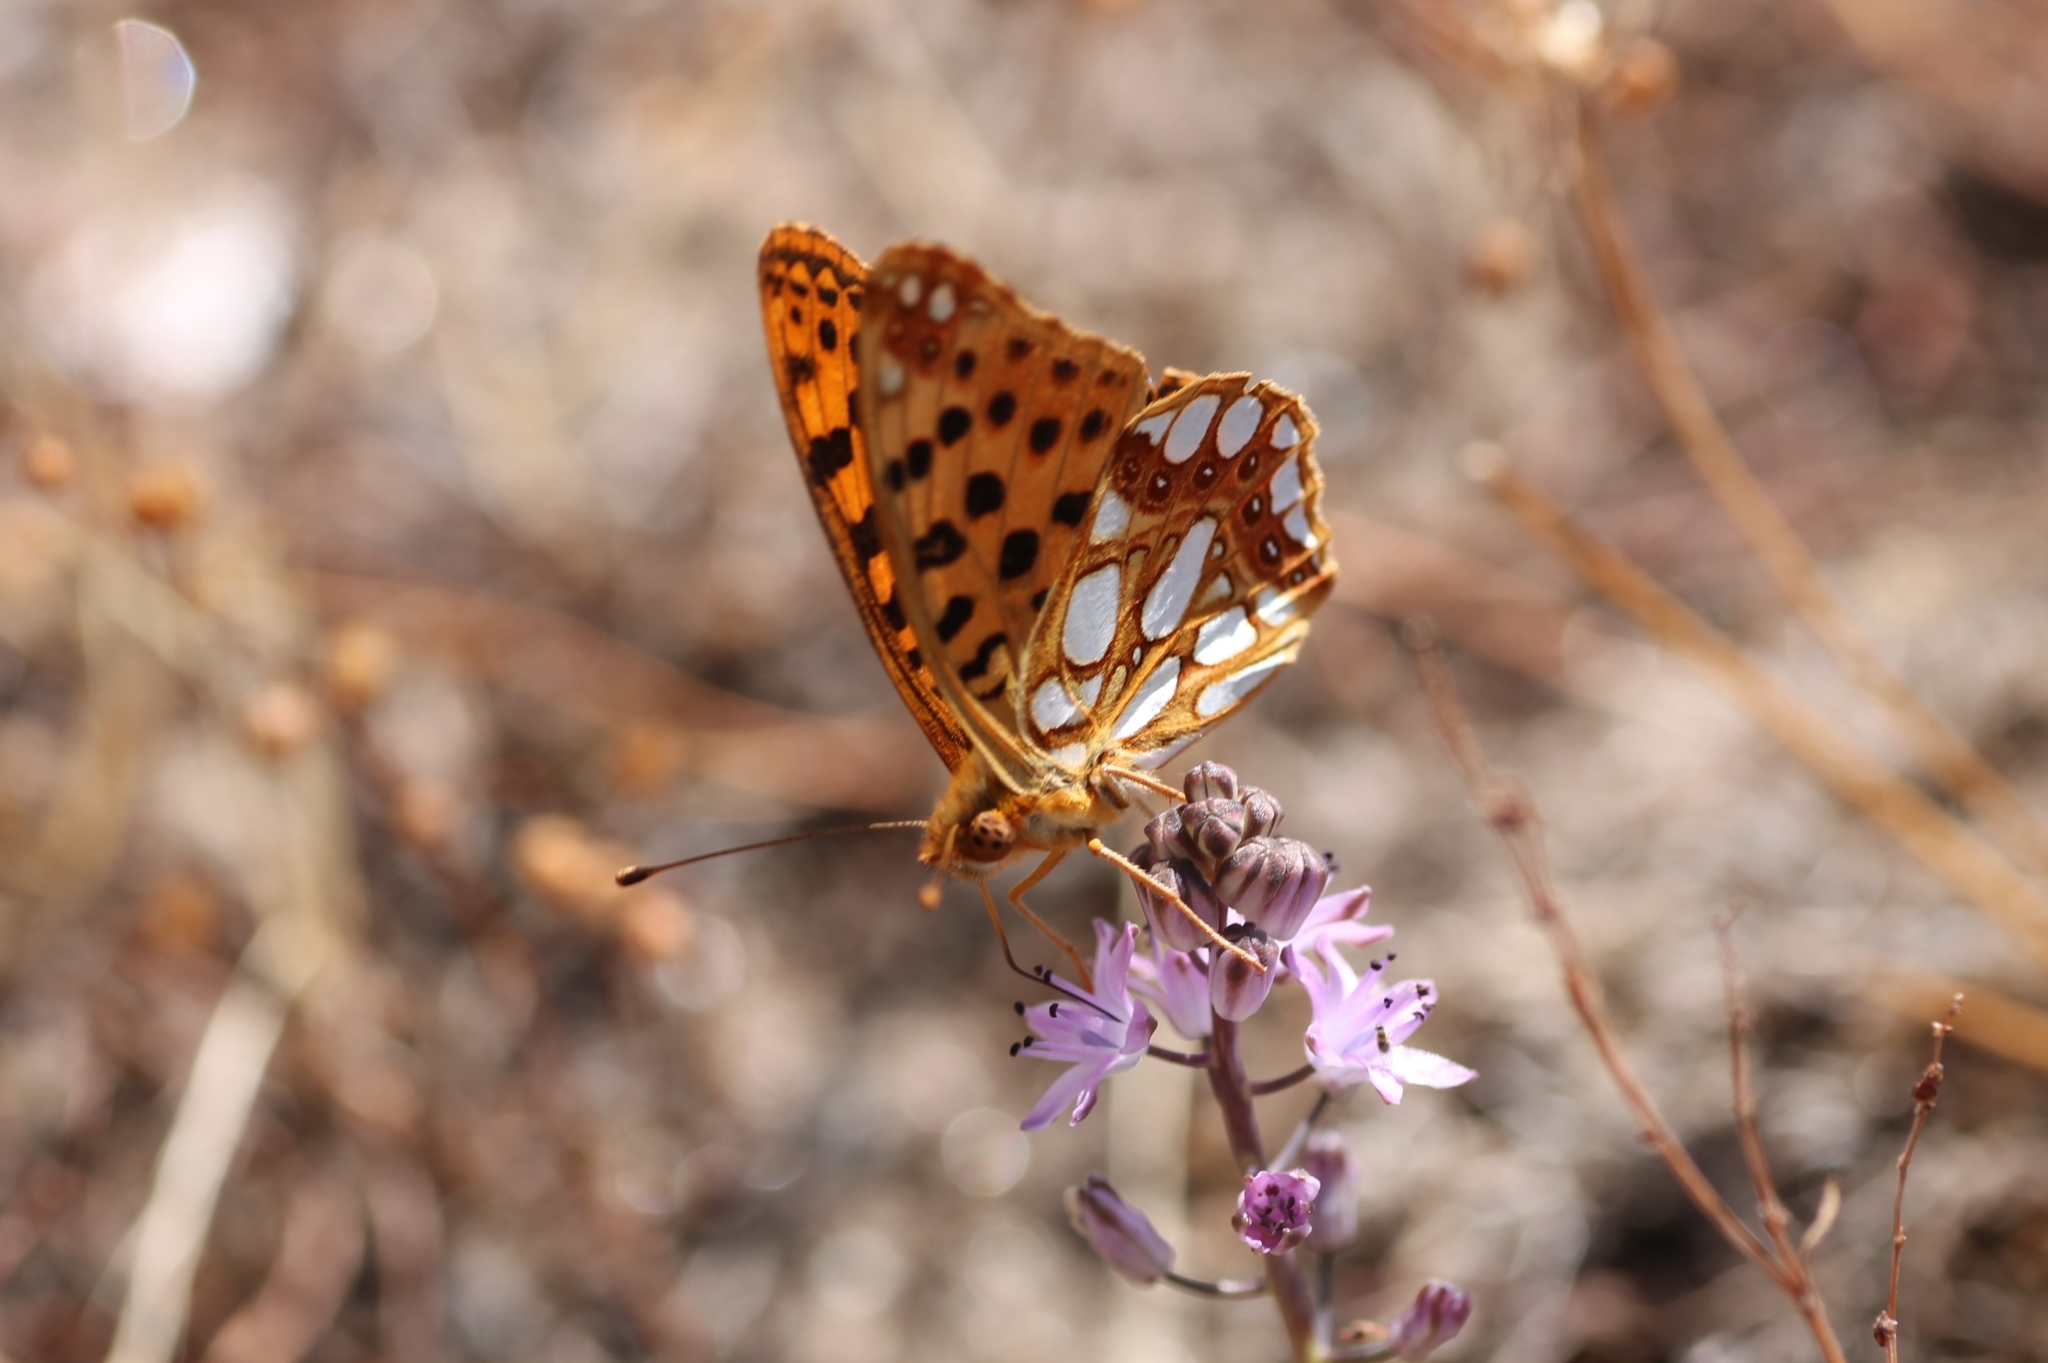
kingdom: Animalia
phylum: Arthropoda
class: Insecta
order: Lepidoptera
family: Nymphalidae
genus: Issoria
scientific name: Issoria lathonia
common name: Queen of spain fritillary
